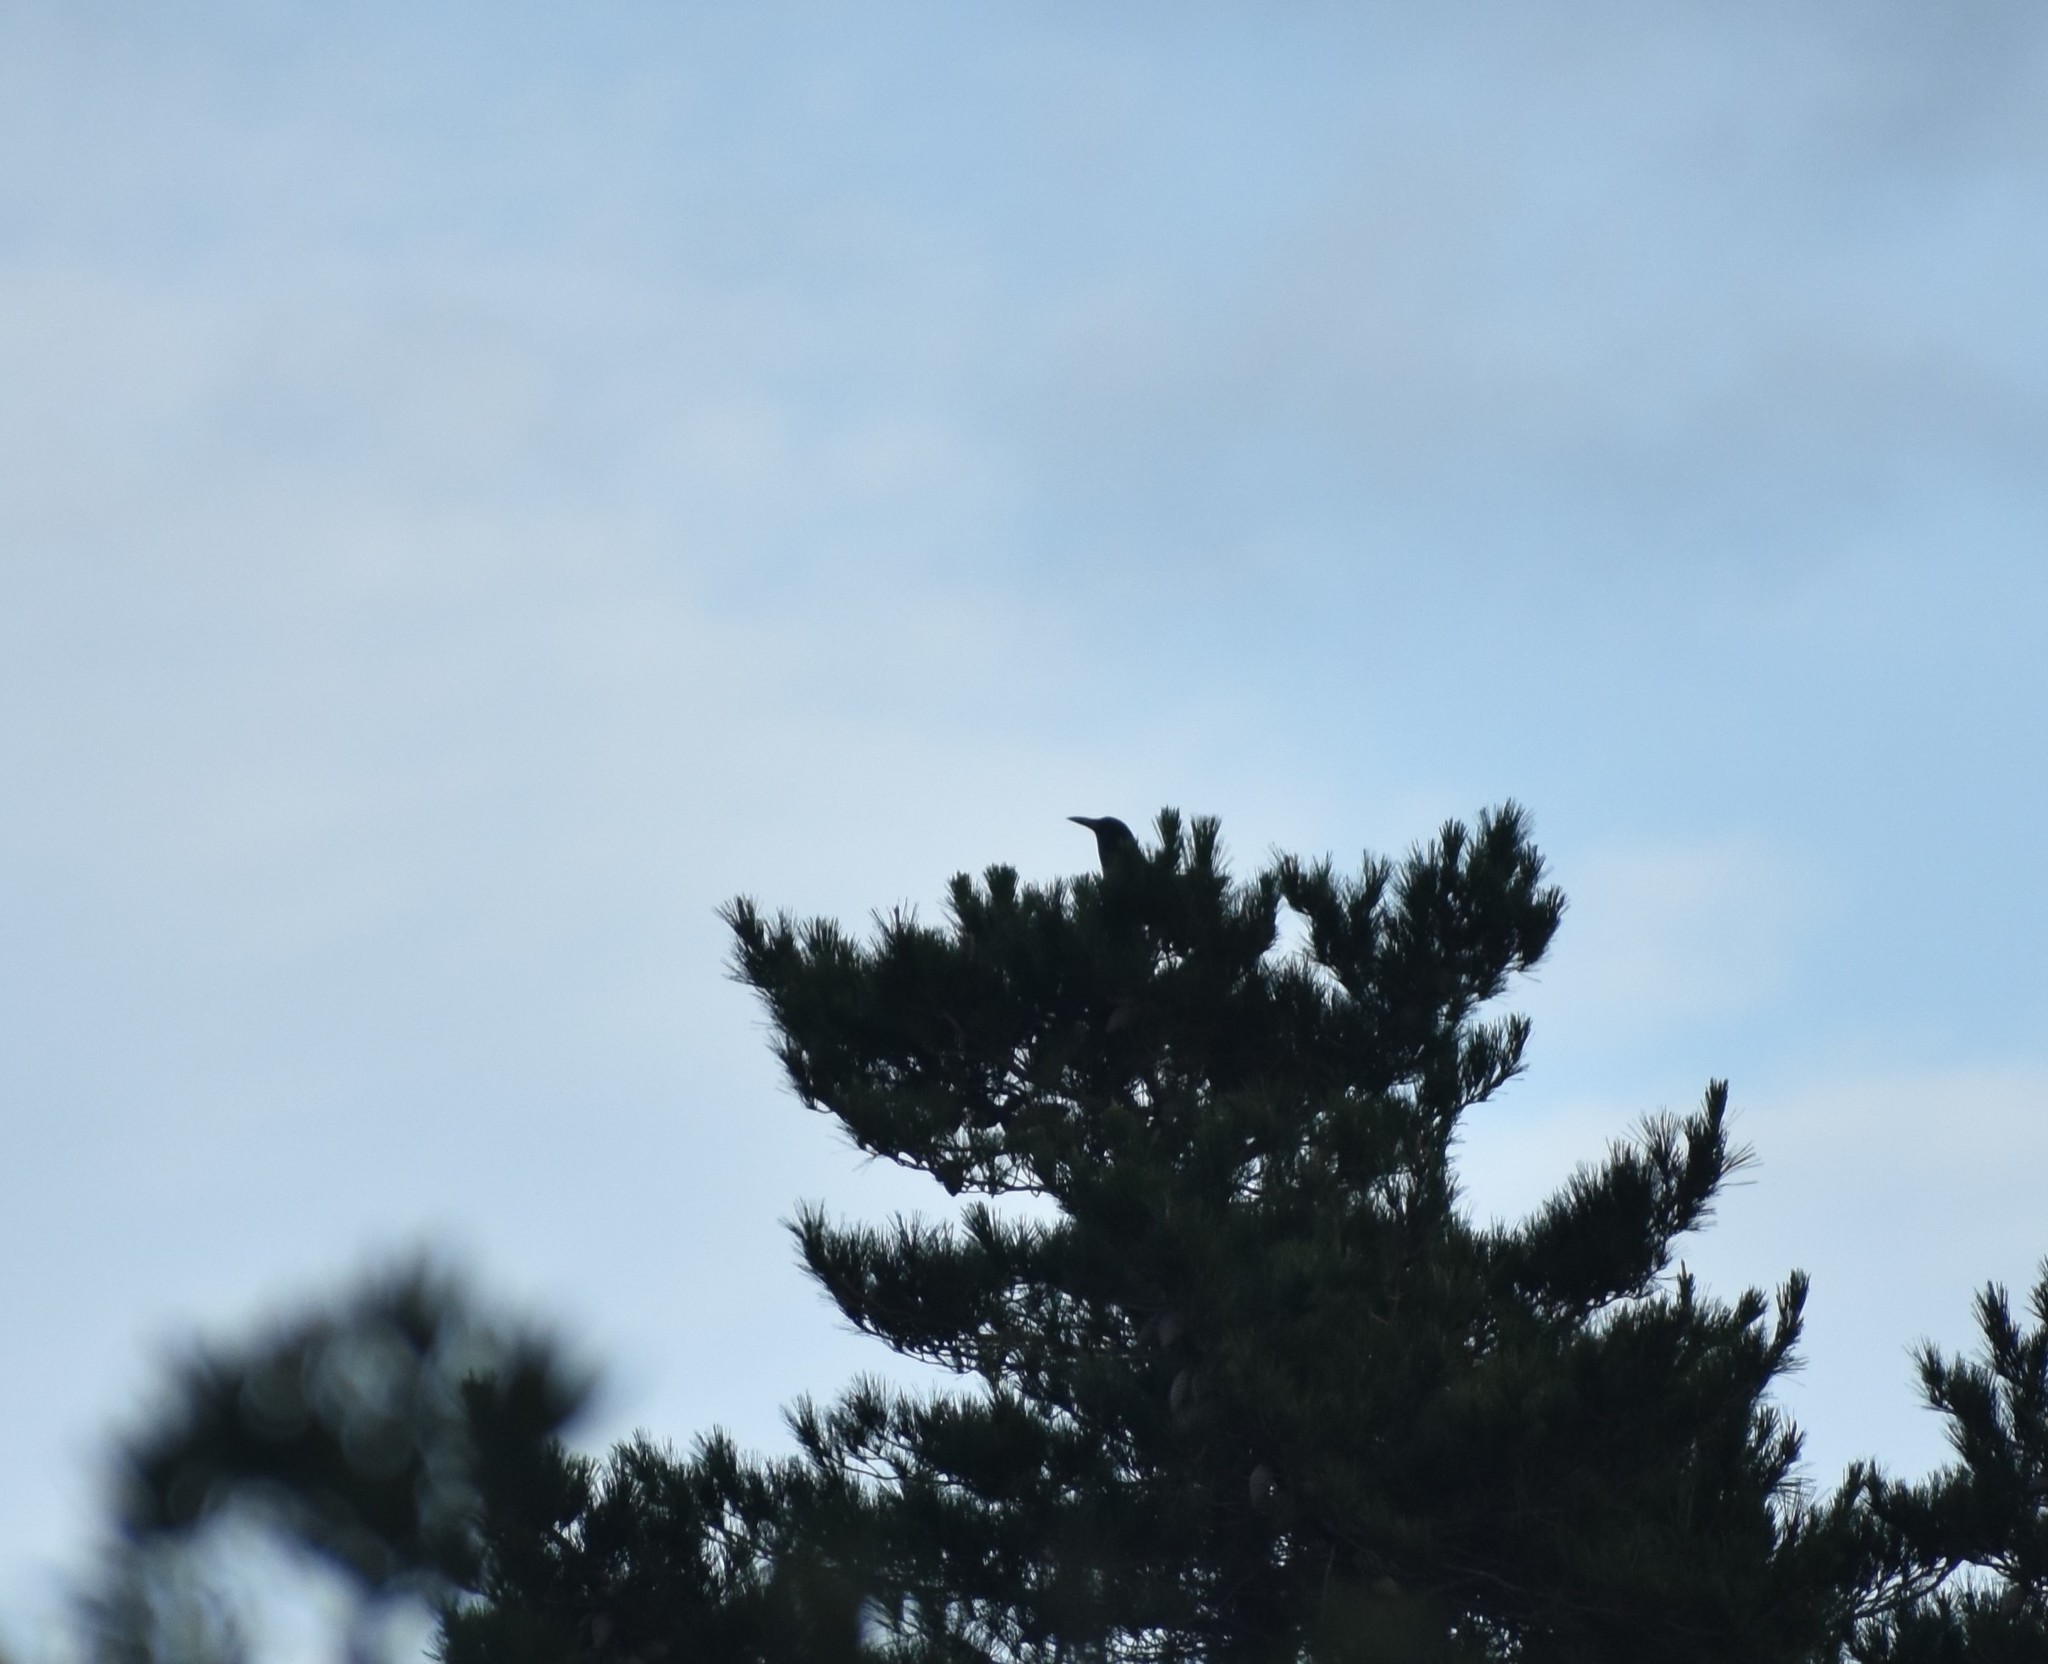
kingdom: Animalia
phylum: Chordata
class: Aves
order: Passeriformes
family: Corvidae
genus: Corvus
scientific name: Corvus capensis
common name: Cape crow
